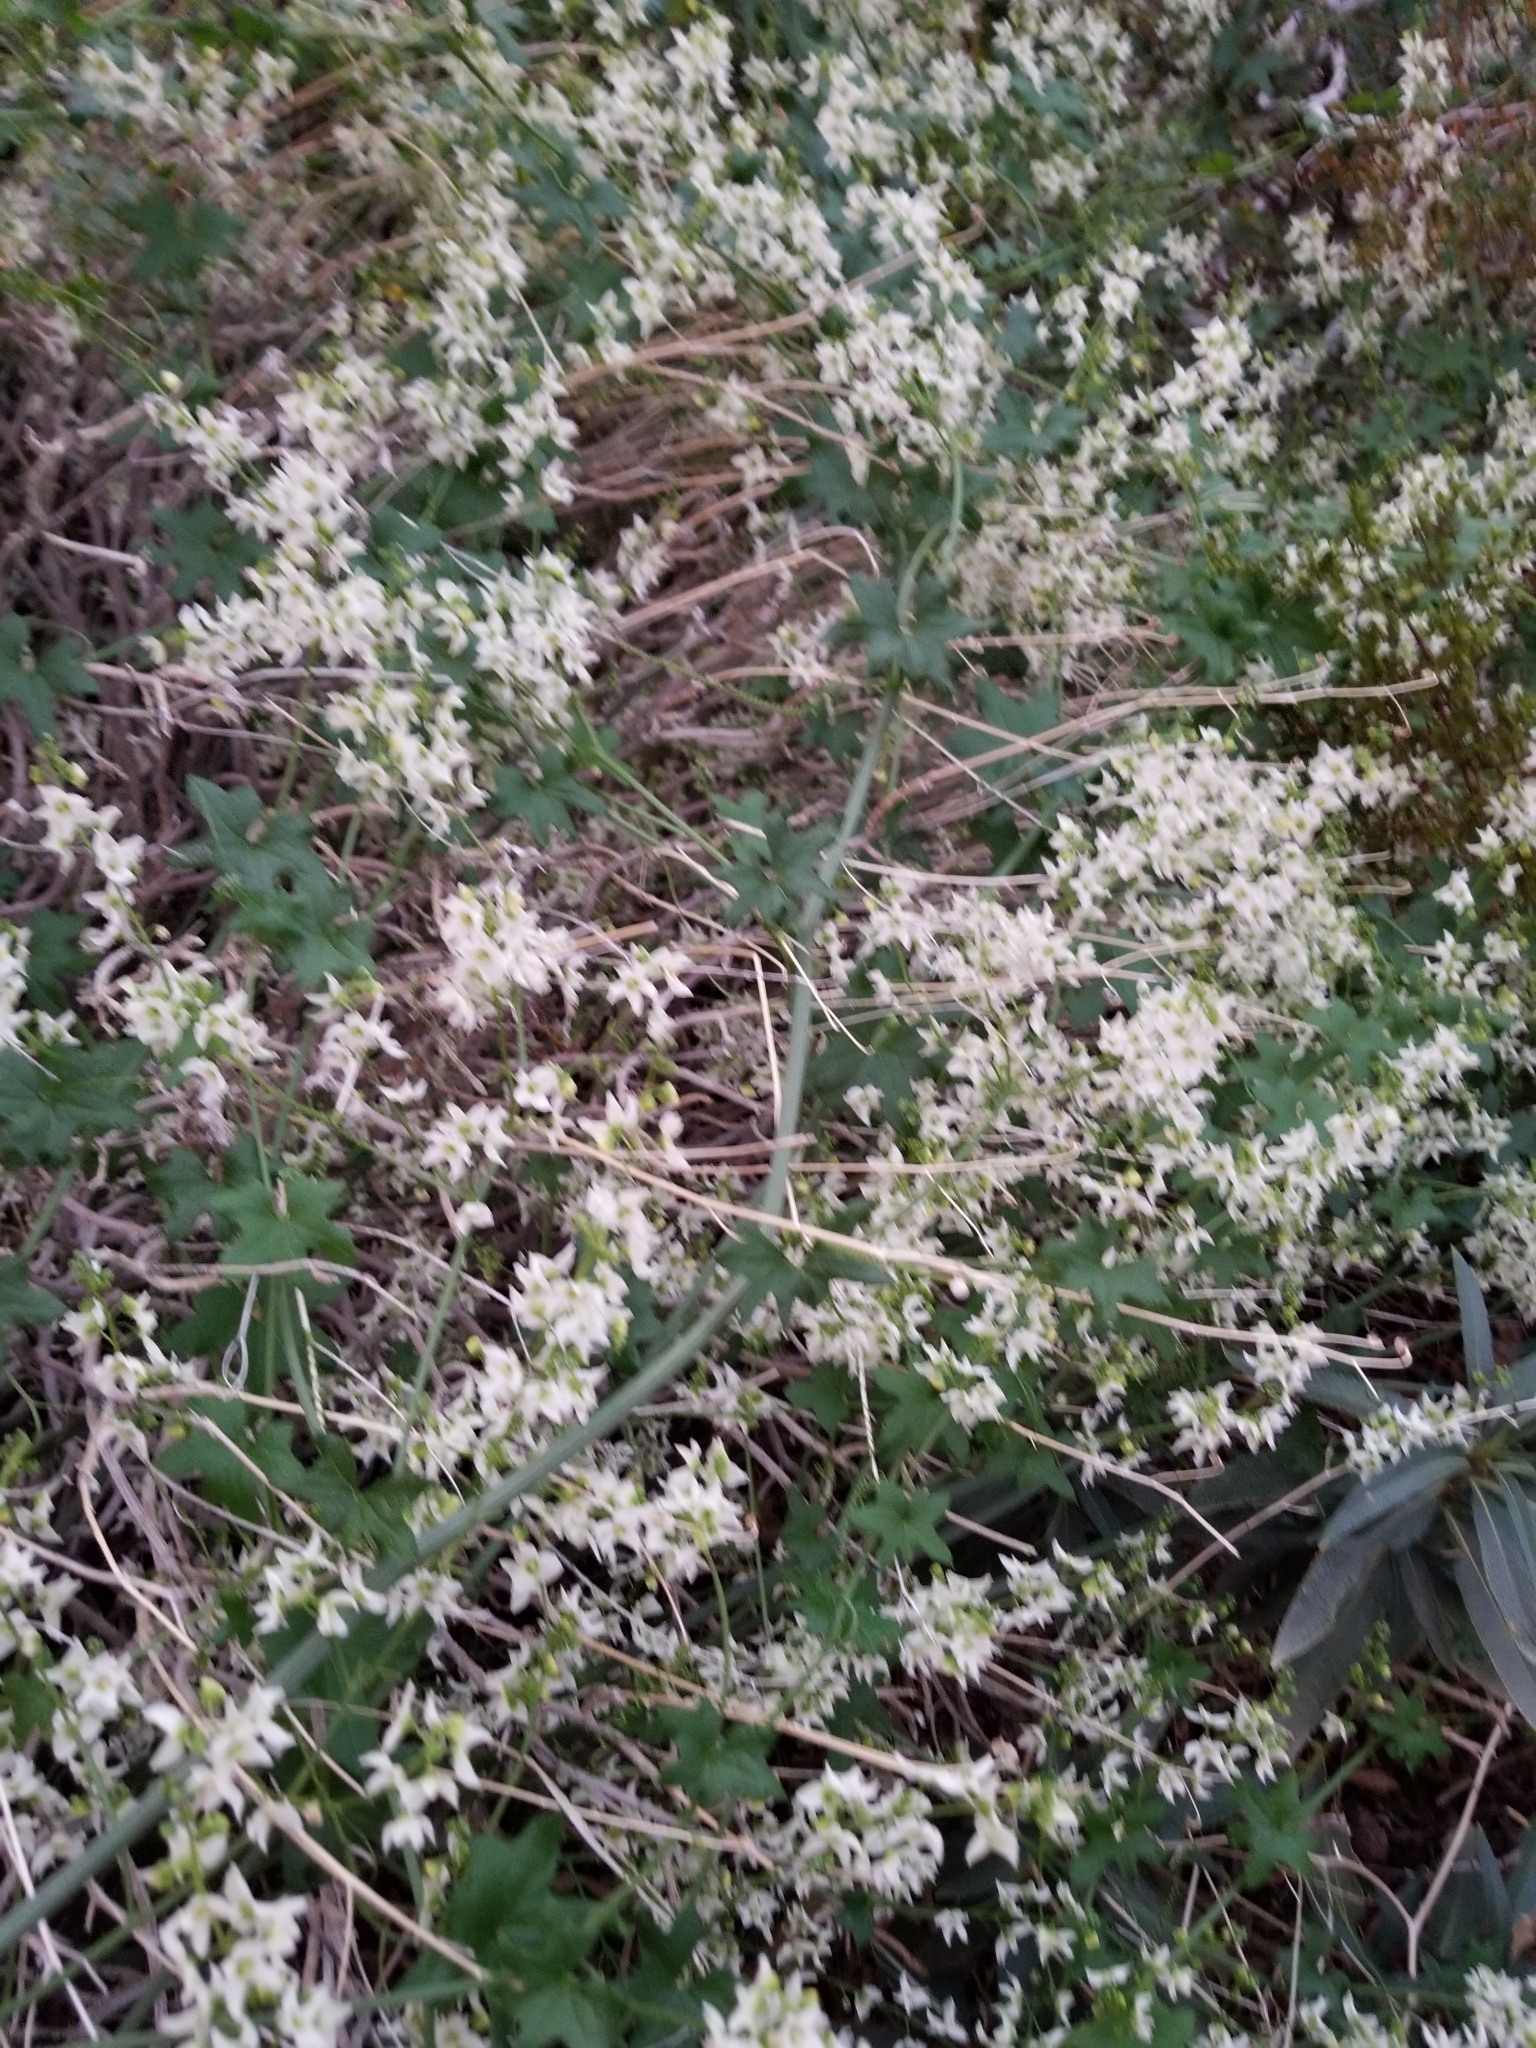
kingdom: Plantae
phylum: Tracheophyta
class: Magnoliopsida
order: Cucurbitales
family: Cucurbitaceae
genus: Marah
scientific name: Marah macrocarpa
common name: Cucamonga manroot
